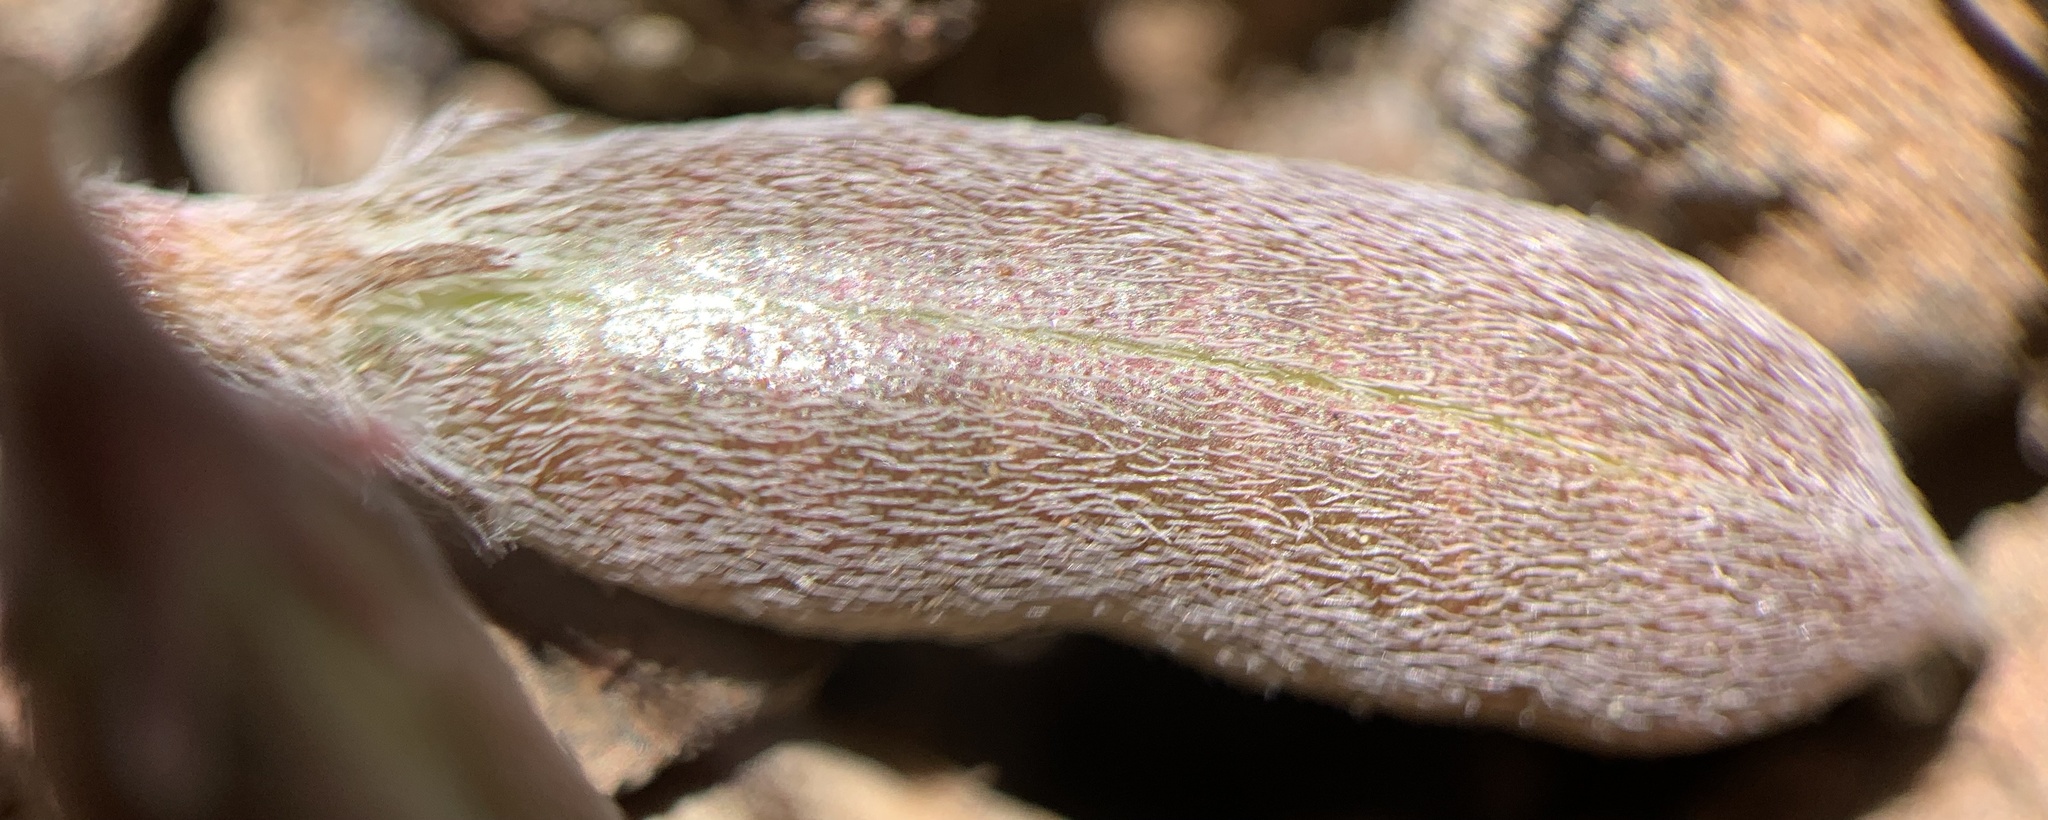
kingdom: Plantae
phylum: Tracheophyta
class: Magnoliopsida
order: Fabales
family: Fabaceae
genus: Astragalus
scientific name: Astragalus brandegeei
